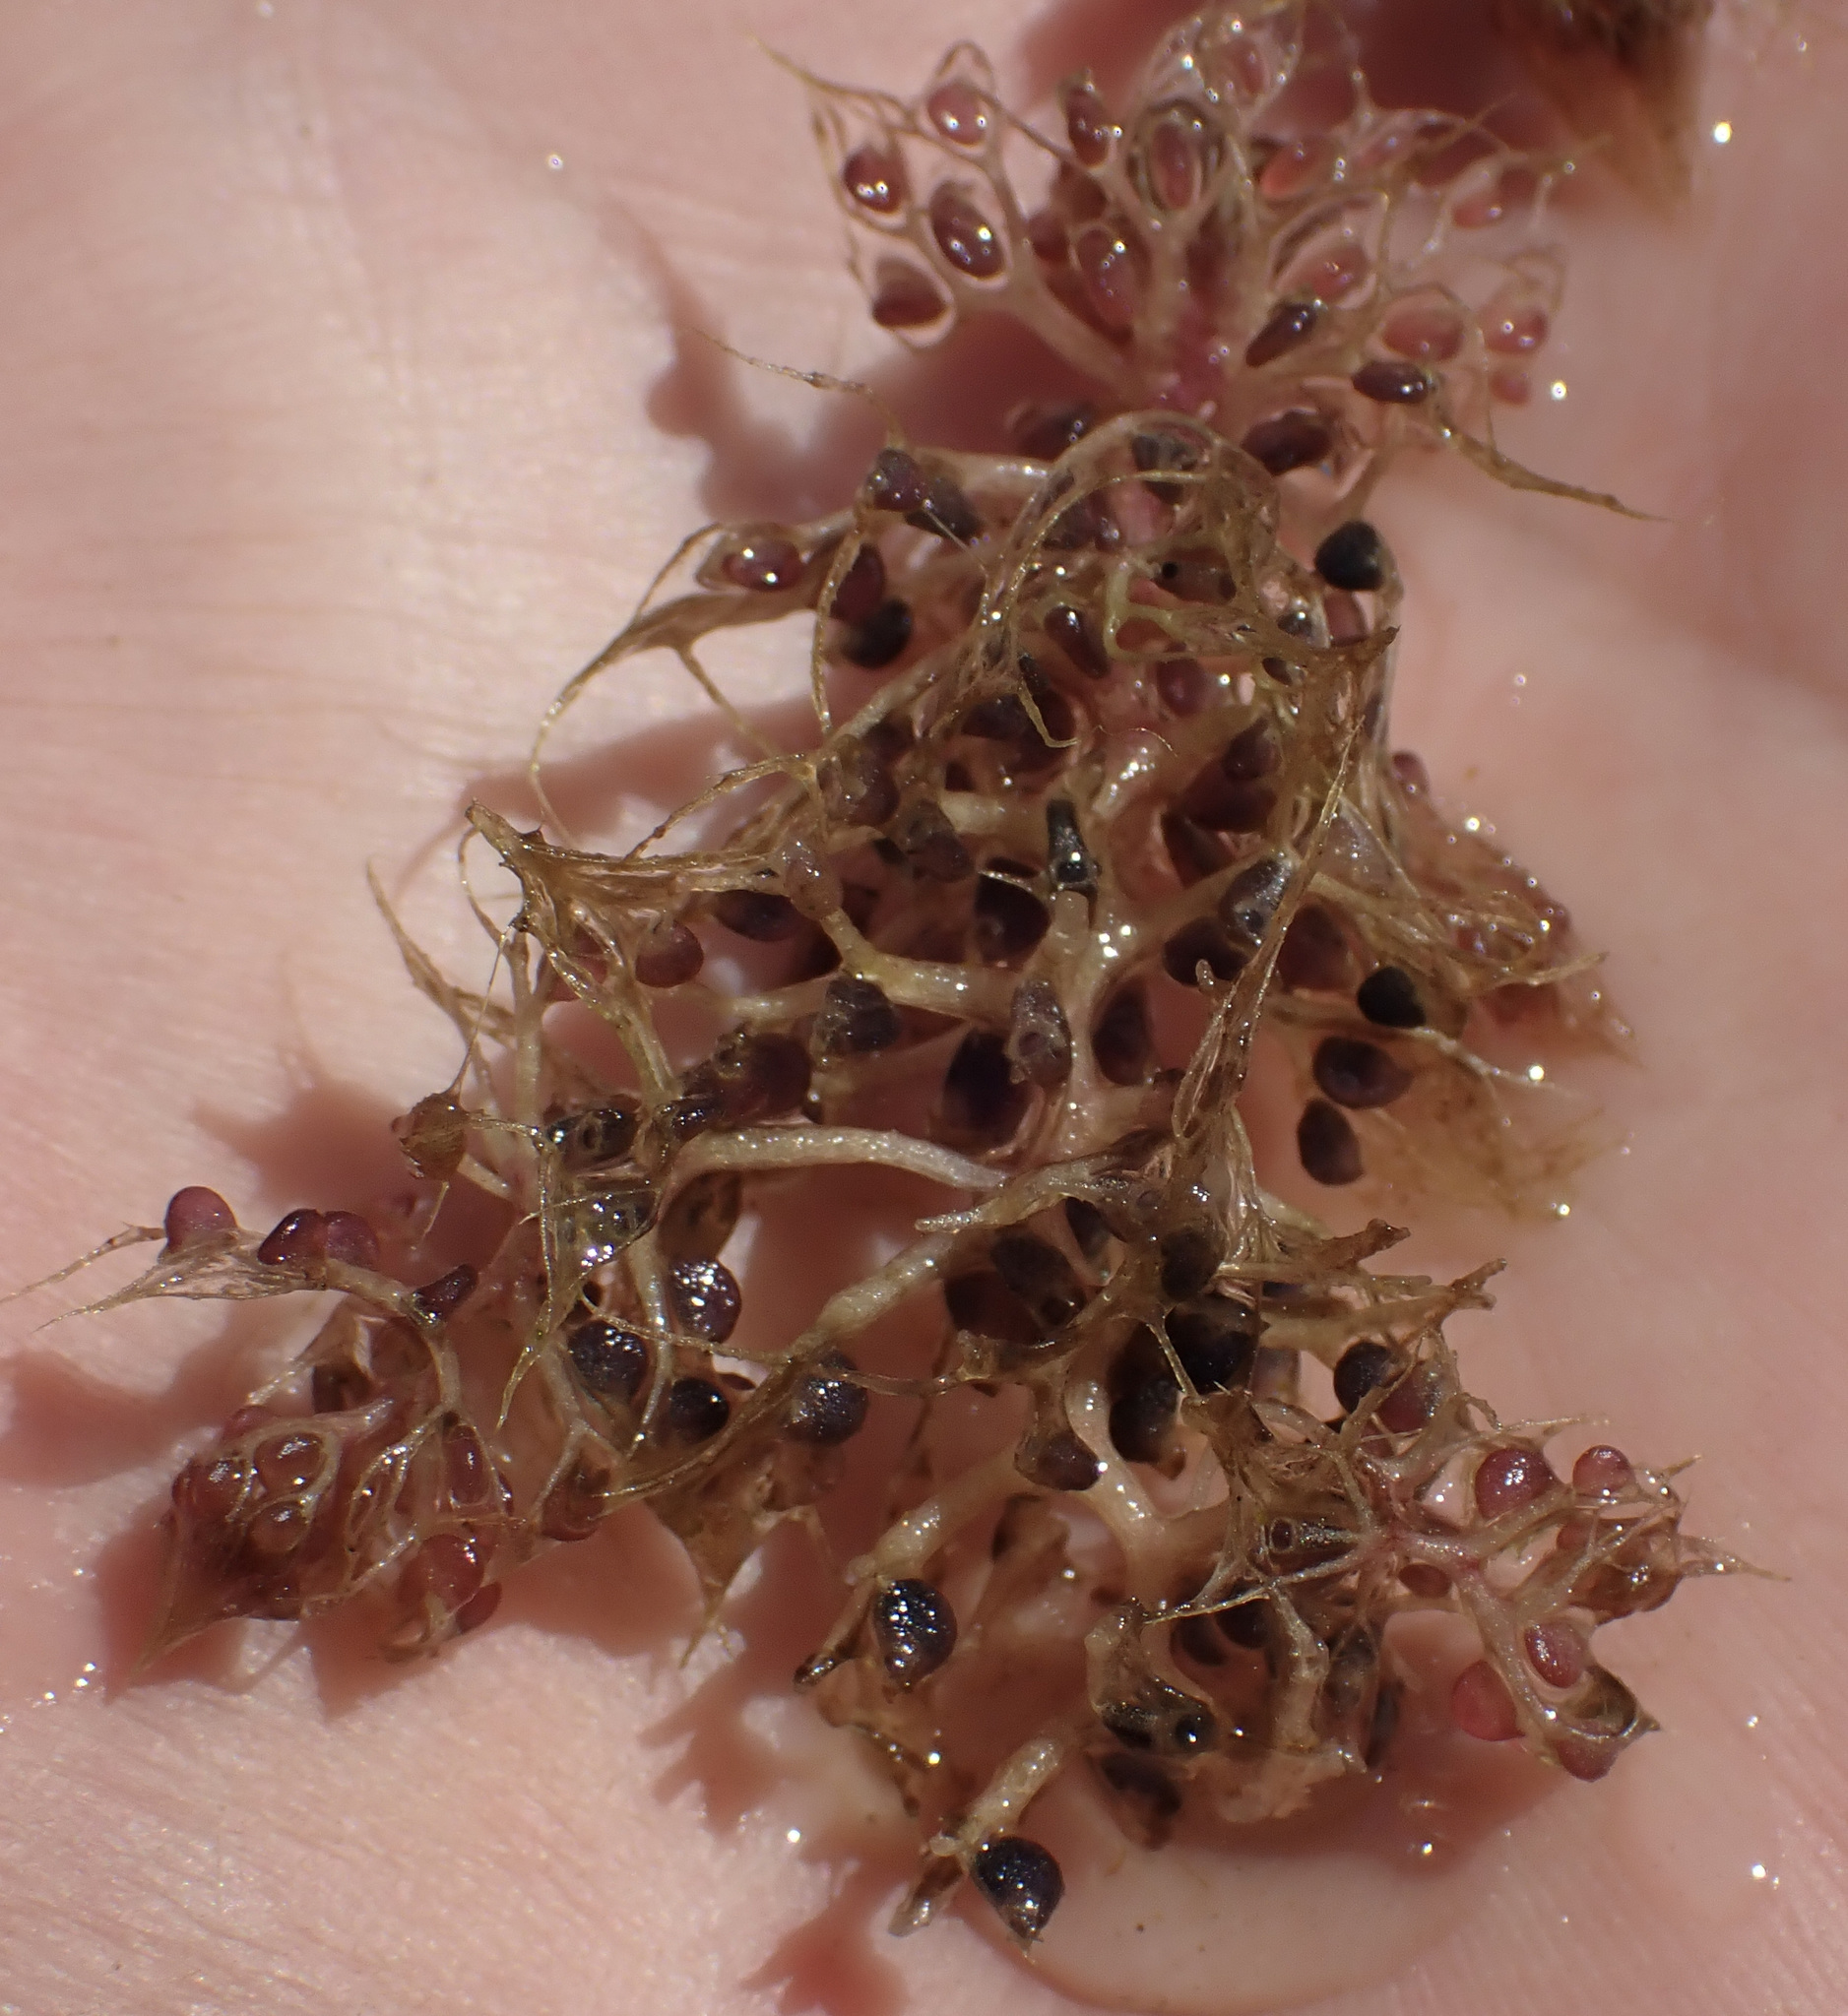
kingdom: Plantae
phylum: Tracheophyta
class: Magnoliopsida
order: Lamiales
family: Lentibulariaceae
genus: Utricularia
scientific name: Utricularia raynalii
